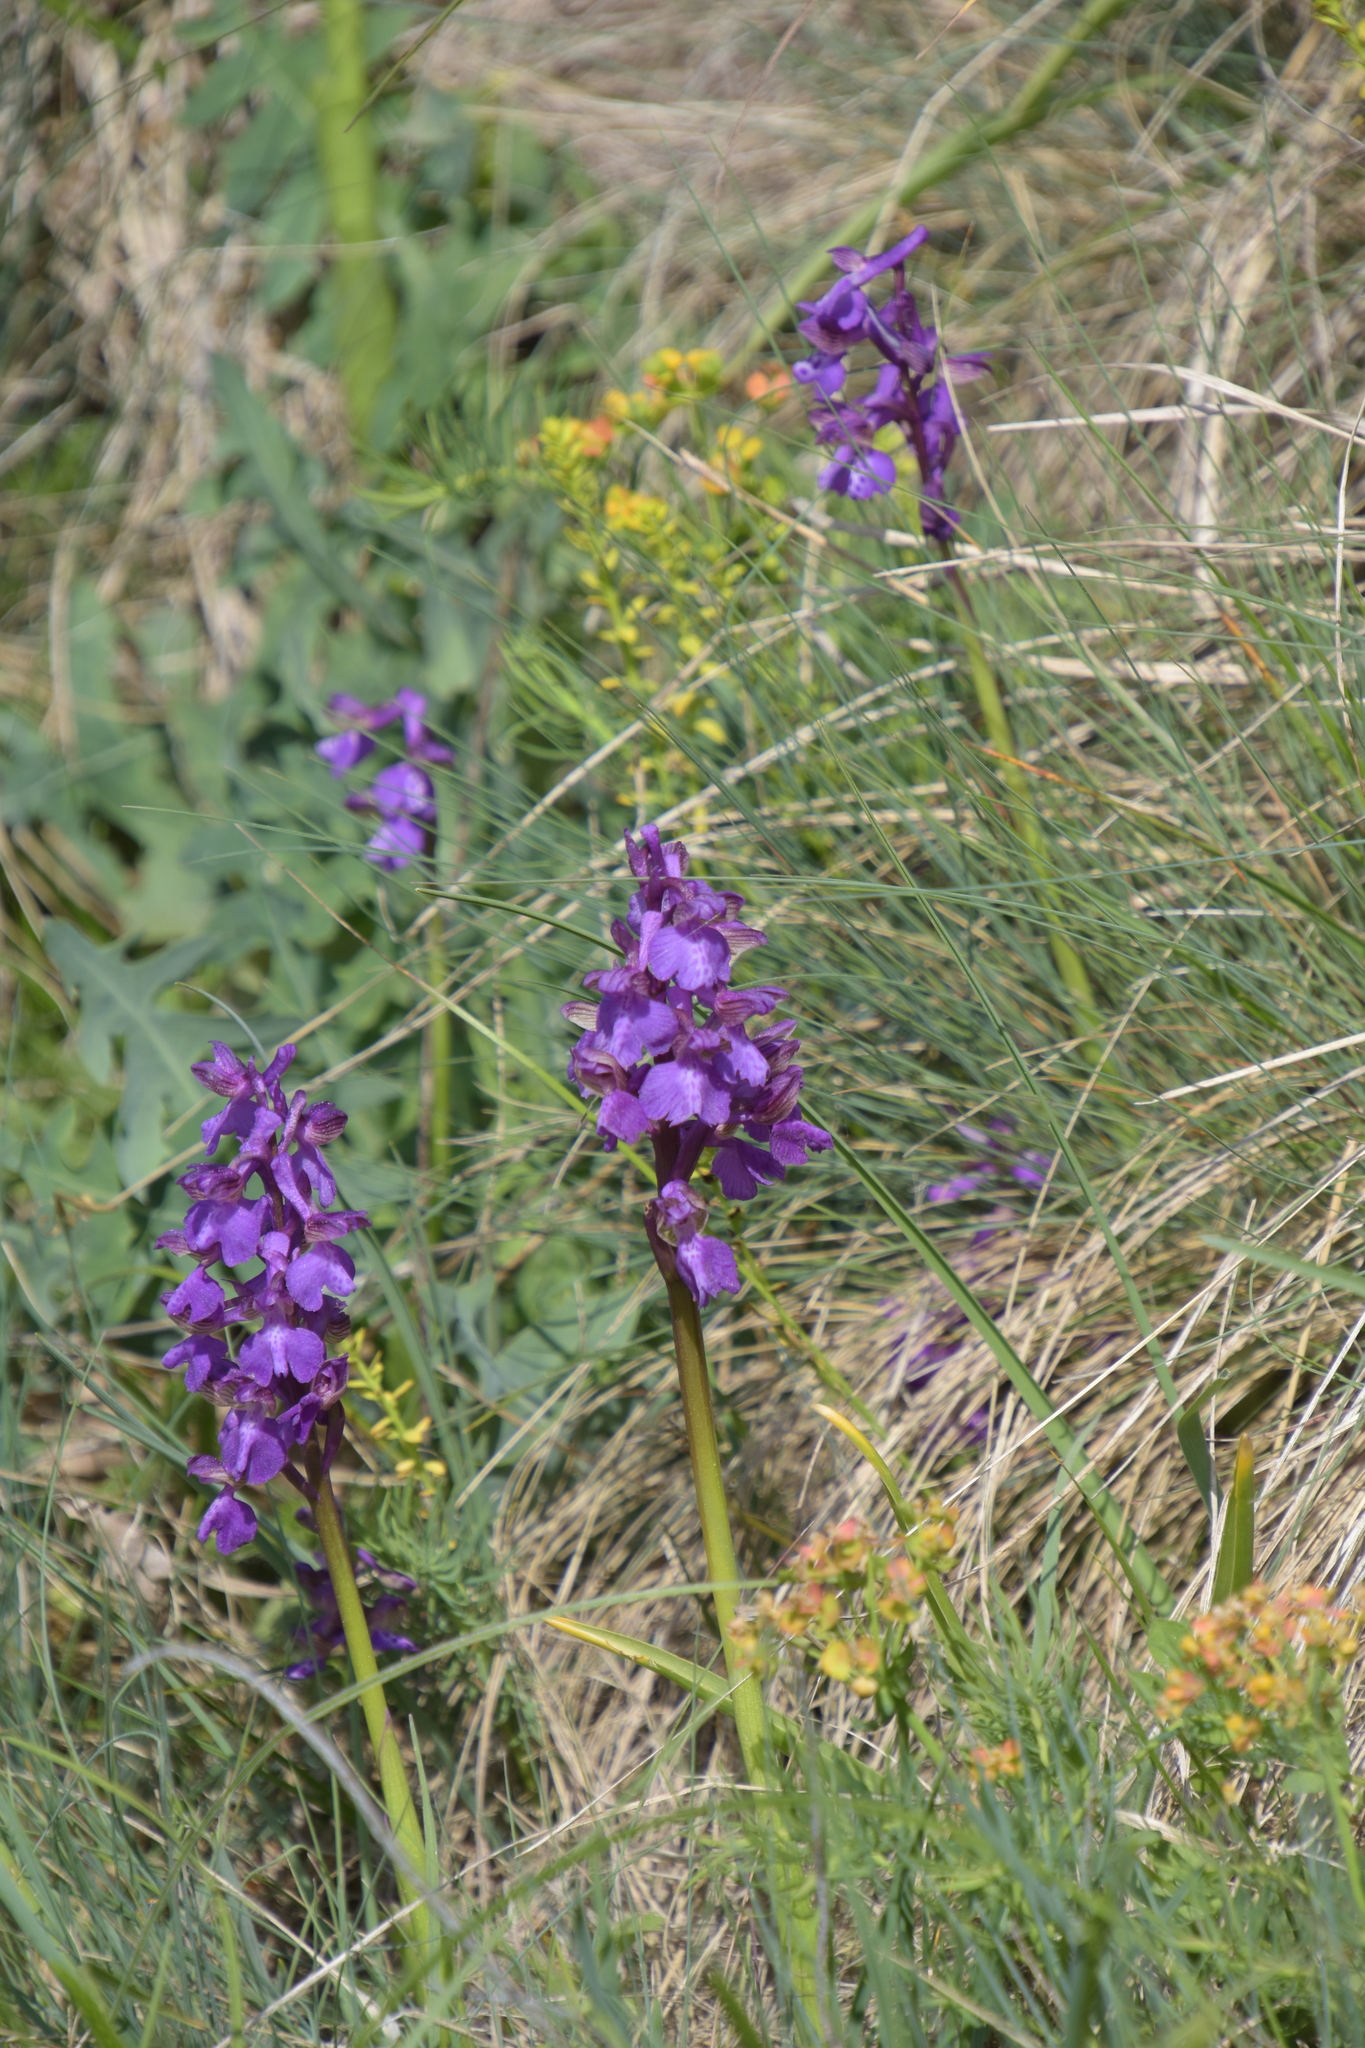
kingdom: Plantae
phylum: Tracheophyta
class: Liliopsida
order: Asparagales
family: Orchidaceae
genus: Anacamptis
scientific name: Anacamptis morio
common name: Green-winged orchid
